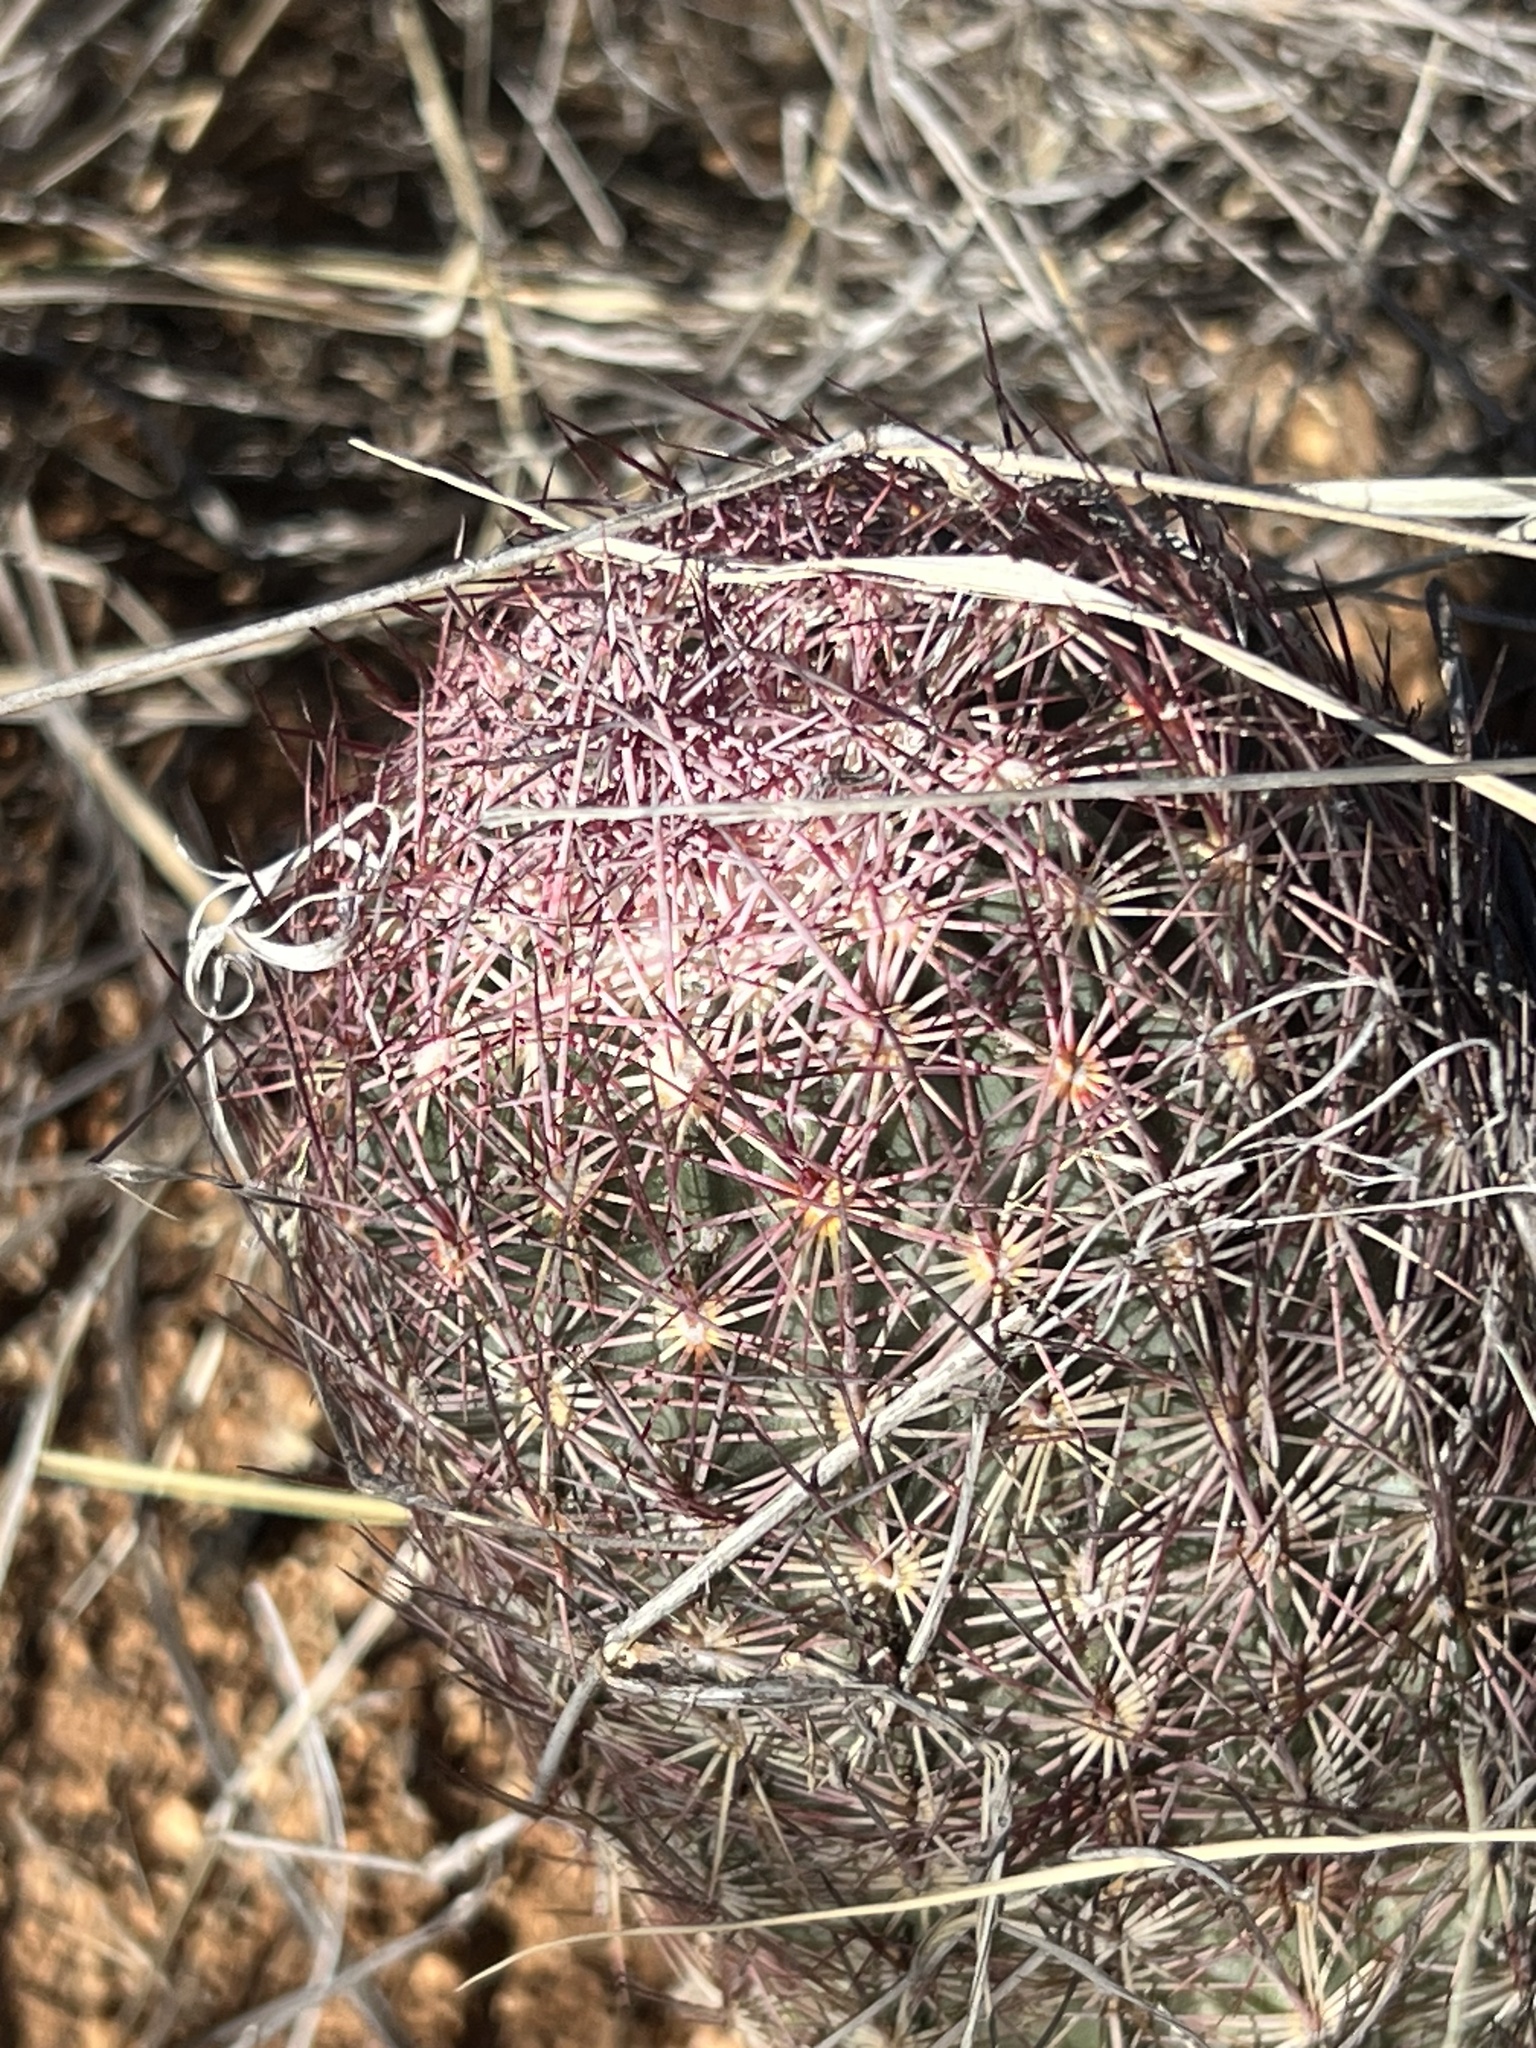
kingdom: Plantae
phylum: Tracheophyta
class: Magnoliopsida
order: Caryophyllales
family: Cactaceae
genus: Sclerocactus
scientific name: Sclerocactus johnsonii
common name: Eight-spine fishhook cactus
